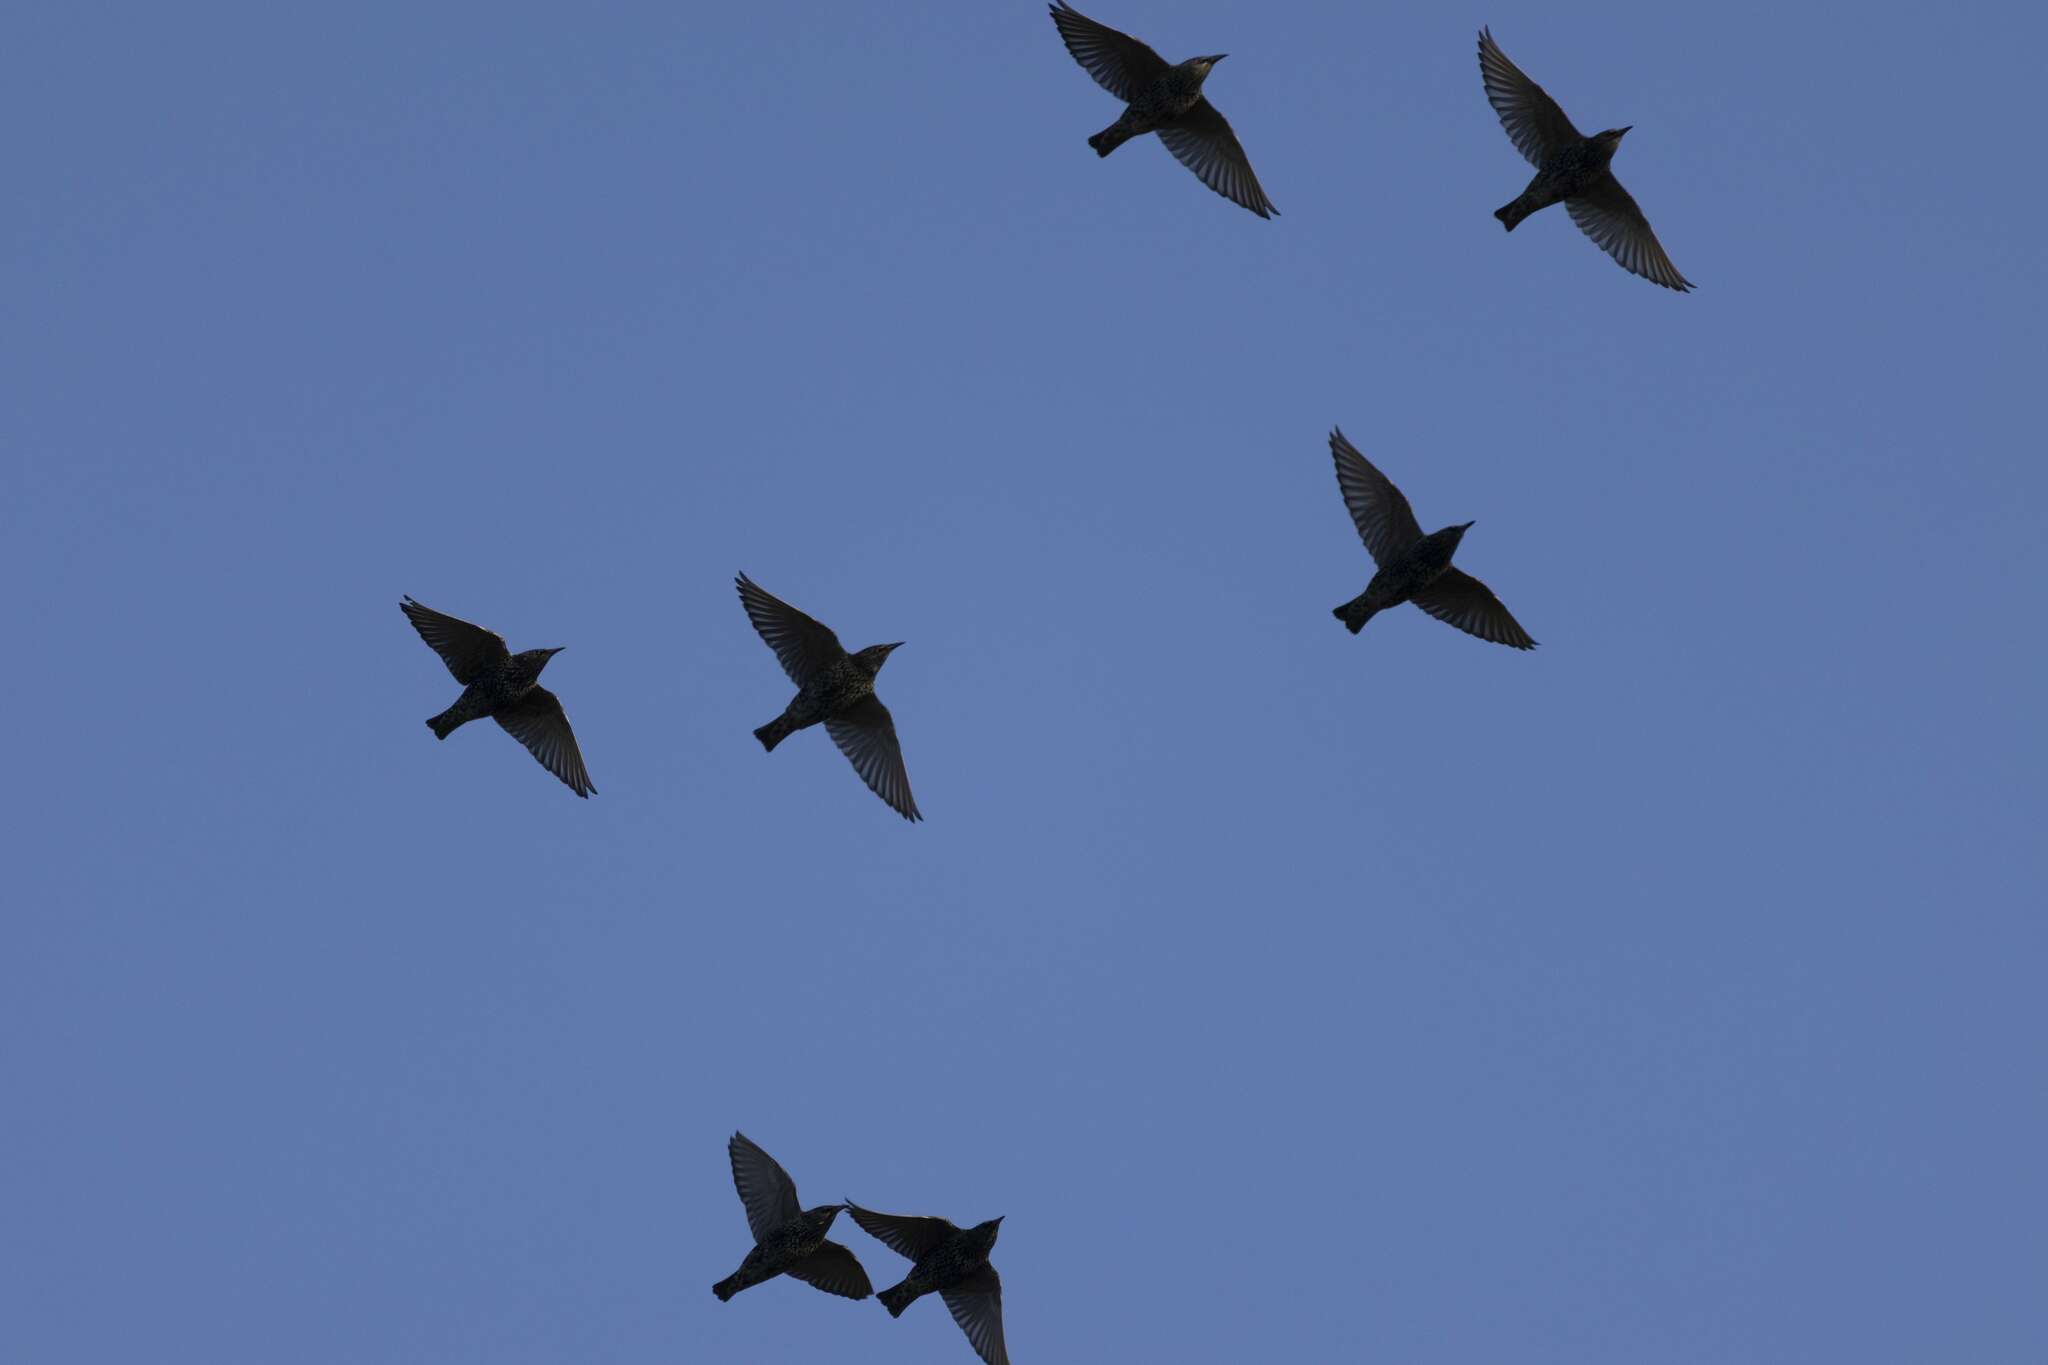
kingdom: Animalia
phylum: Chordata
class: Aves
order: Passeriformes
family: Sturnidae
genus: Sturnus
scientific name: Sturnus vulgaris
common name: Common starling
